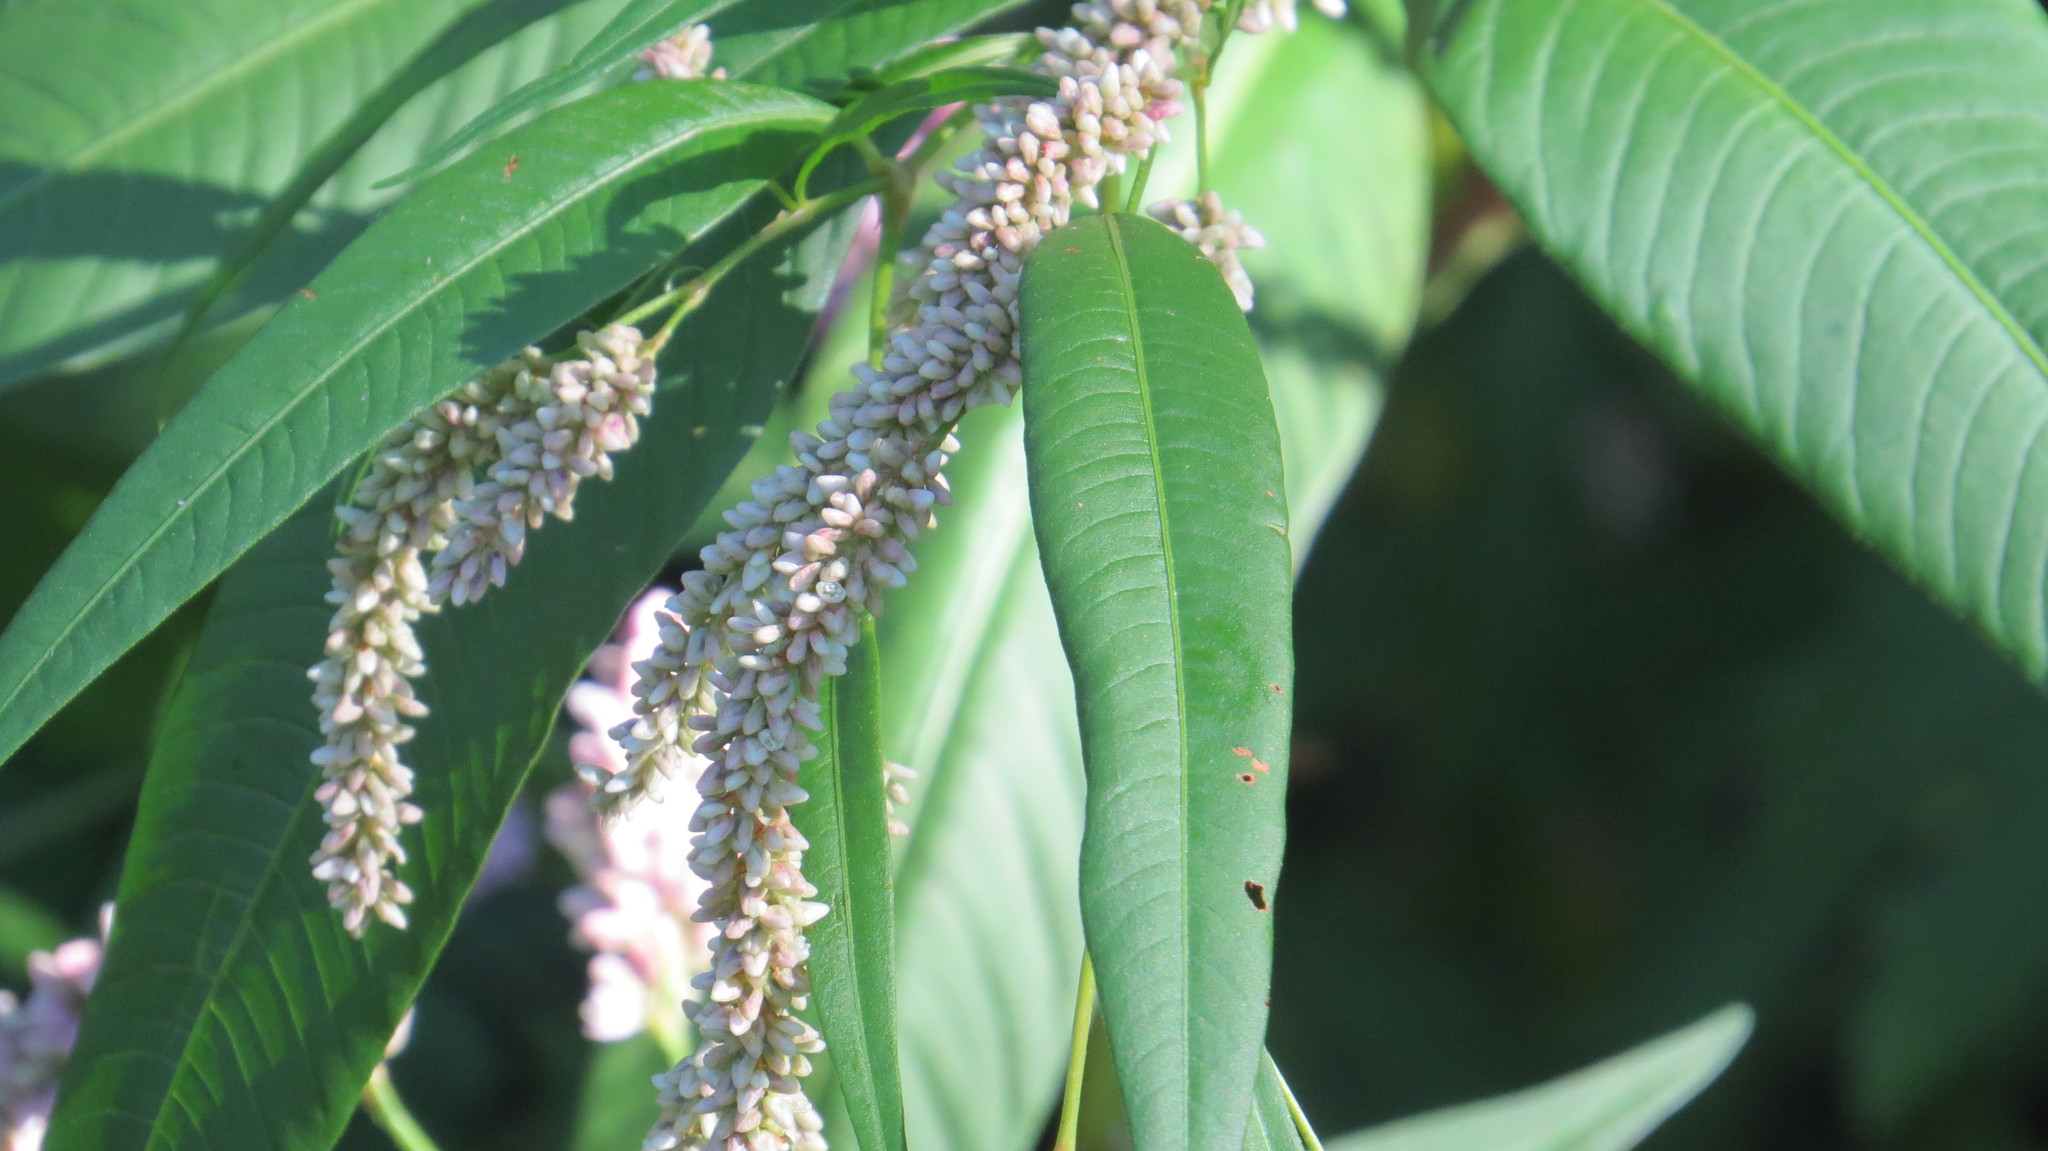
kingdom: Plantae
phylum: Tracheophyta
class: Magnoliopsida
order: Caryophyllales
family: Polygonaceae
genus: Persicaria
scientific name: Persicaria lapathifolia
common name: Curlytop knotweed
